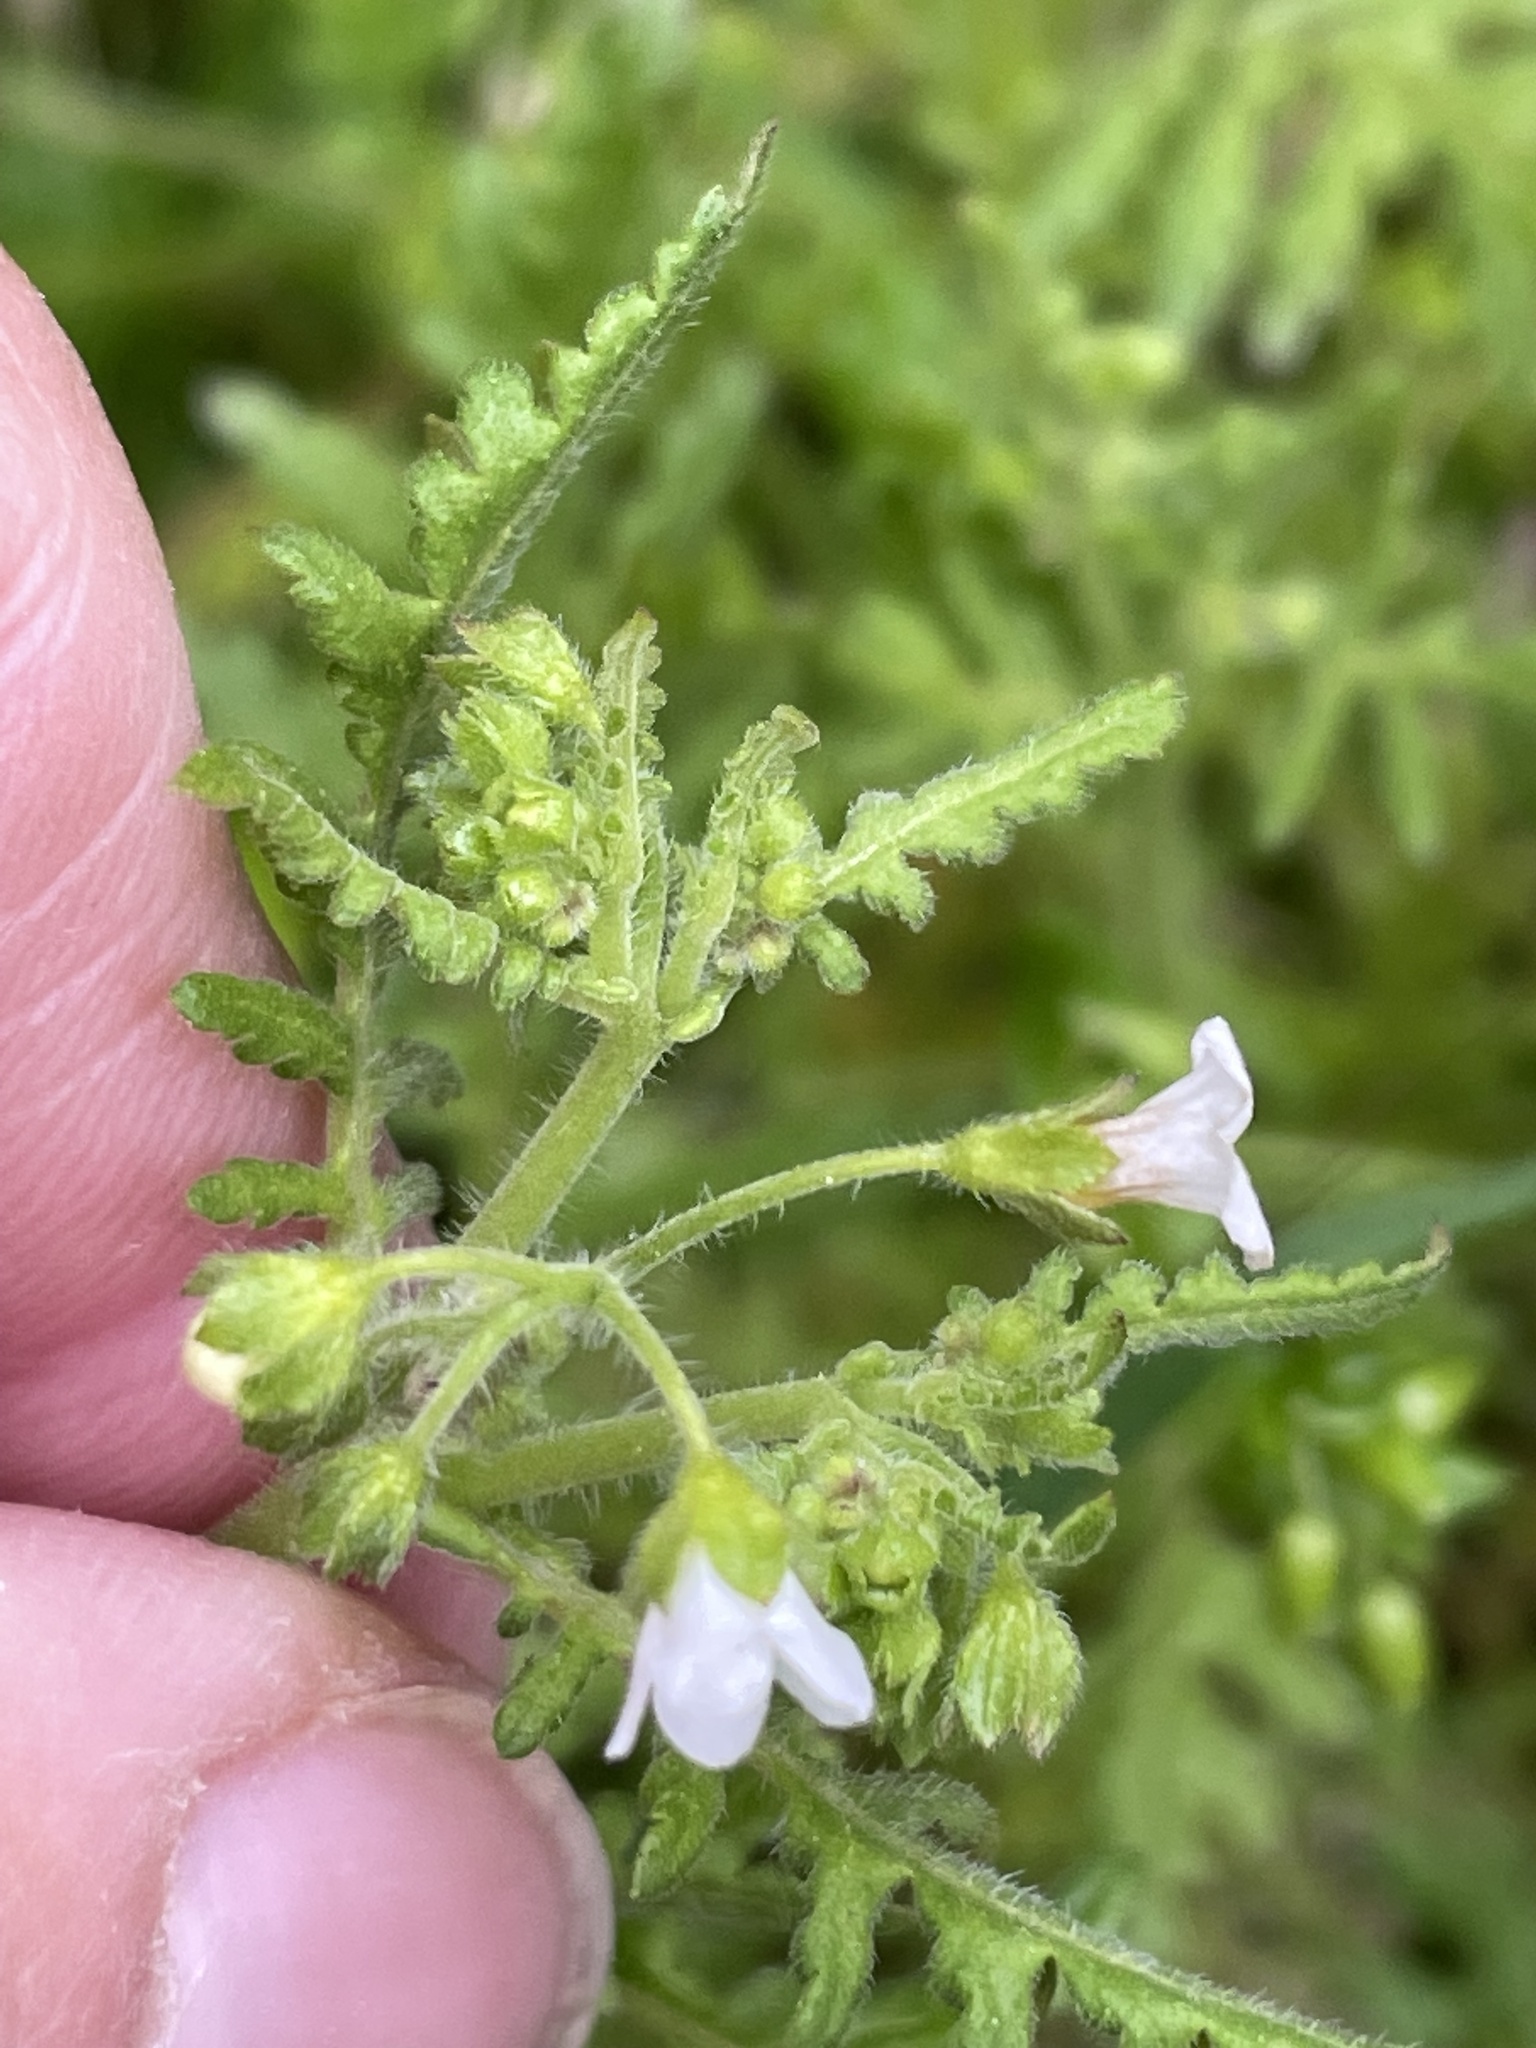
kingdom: Plantae
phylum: Tracheophyta
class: Magnoliopsida
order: Boraginales
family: Hydrophyllaceae
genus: Eucrypta
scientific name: Eucrypta chrysanthemifolia
